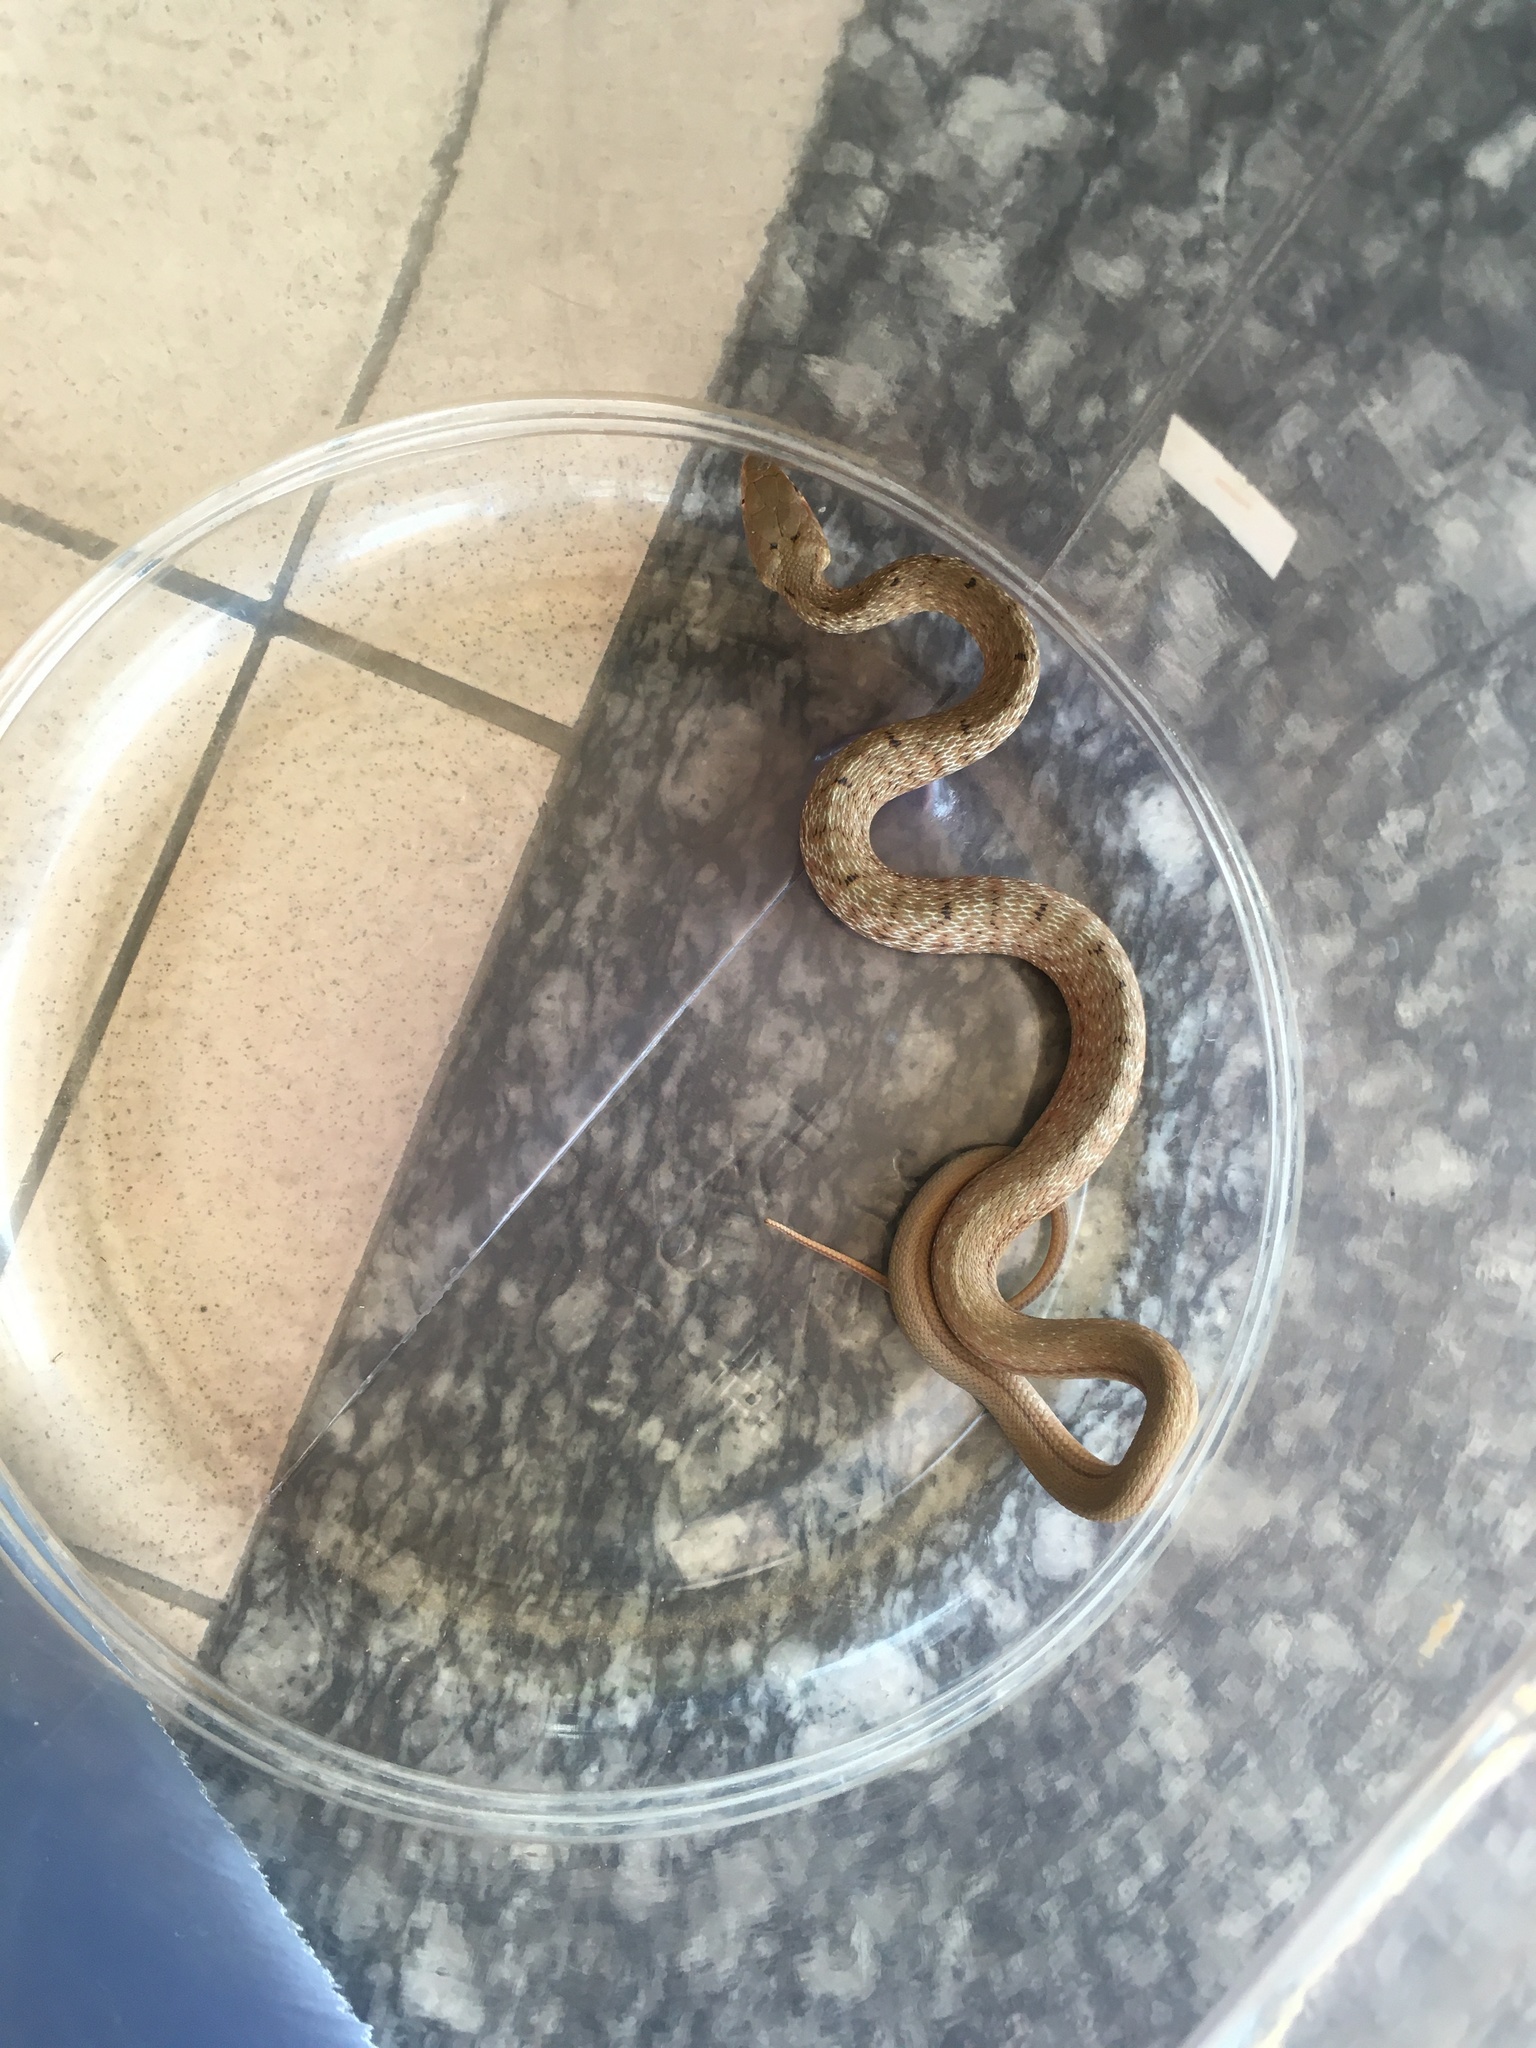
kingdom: Animalia
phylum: Chordata
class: Squamata
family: Colubridae
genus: Elaphe
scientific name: Elaphe carinata
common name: Taiwan stink snake
